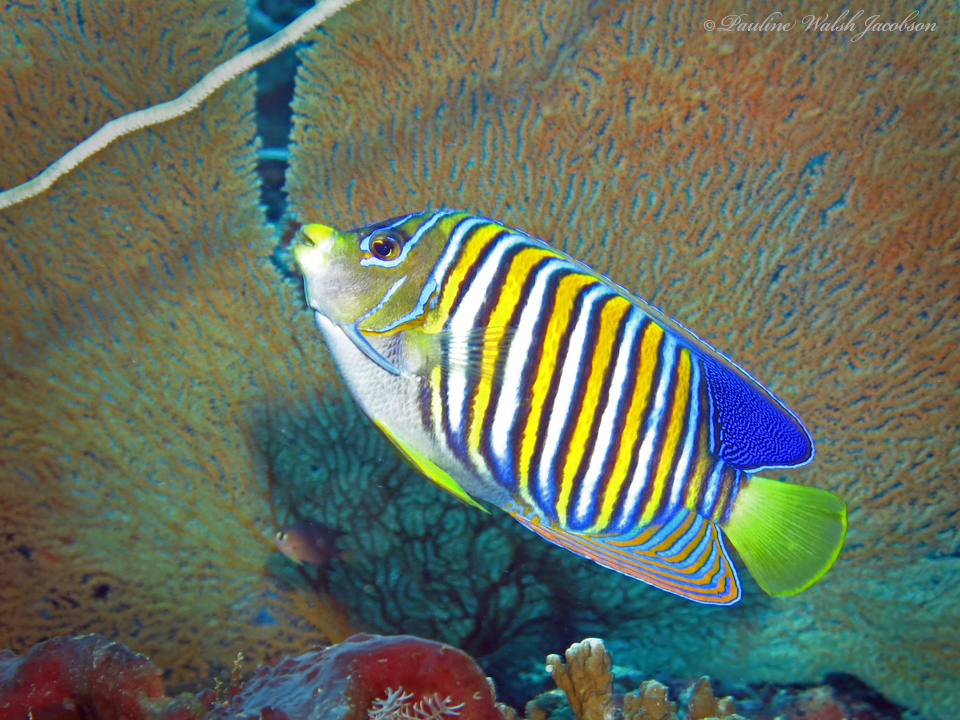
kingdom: Animalia
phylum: Chordata
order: Perciformes
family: Pomacanthidae
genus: Pygoplites
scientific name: Pygoplites diacanthus
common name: Regal angelfish
